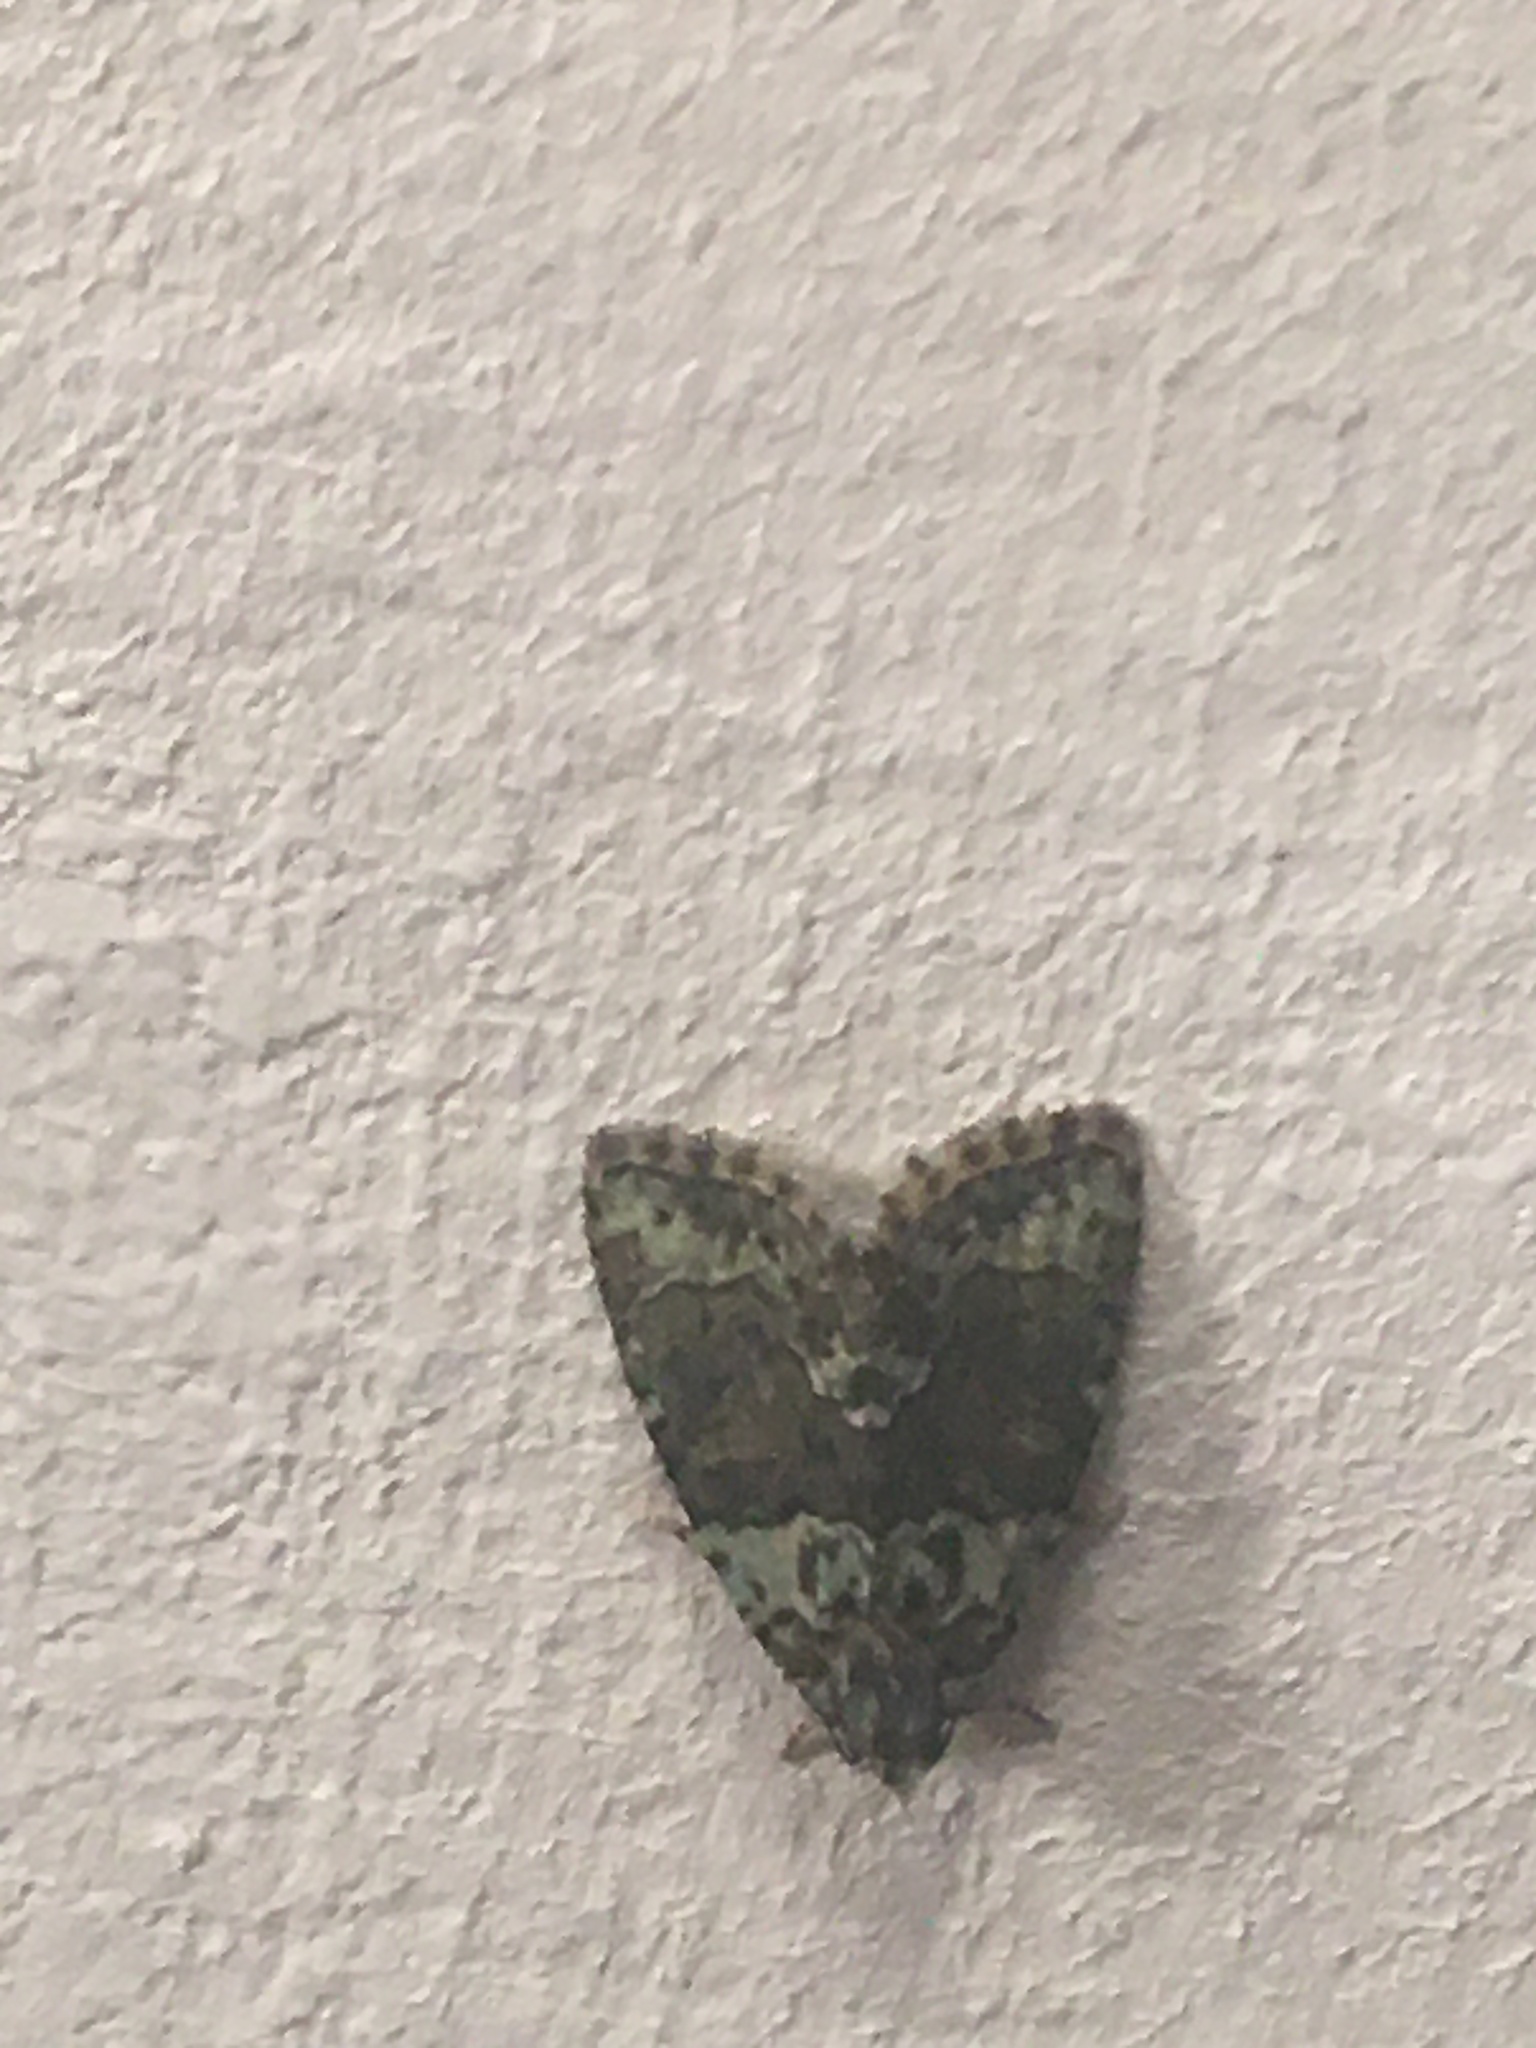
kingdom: Animalia
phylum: Arthropoda
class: Insecta
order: Lepidoptera
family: Noctuidae
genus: Cryphia
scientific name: Cryphia algae
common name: Tree-lichen beauty
